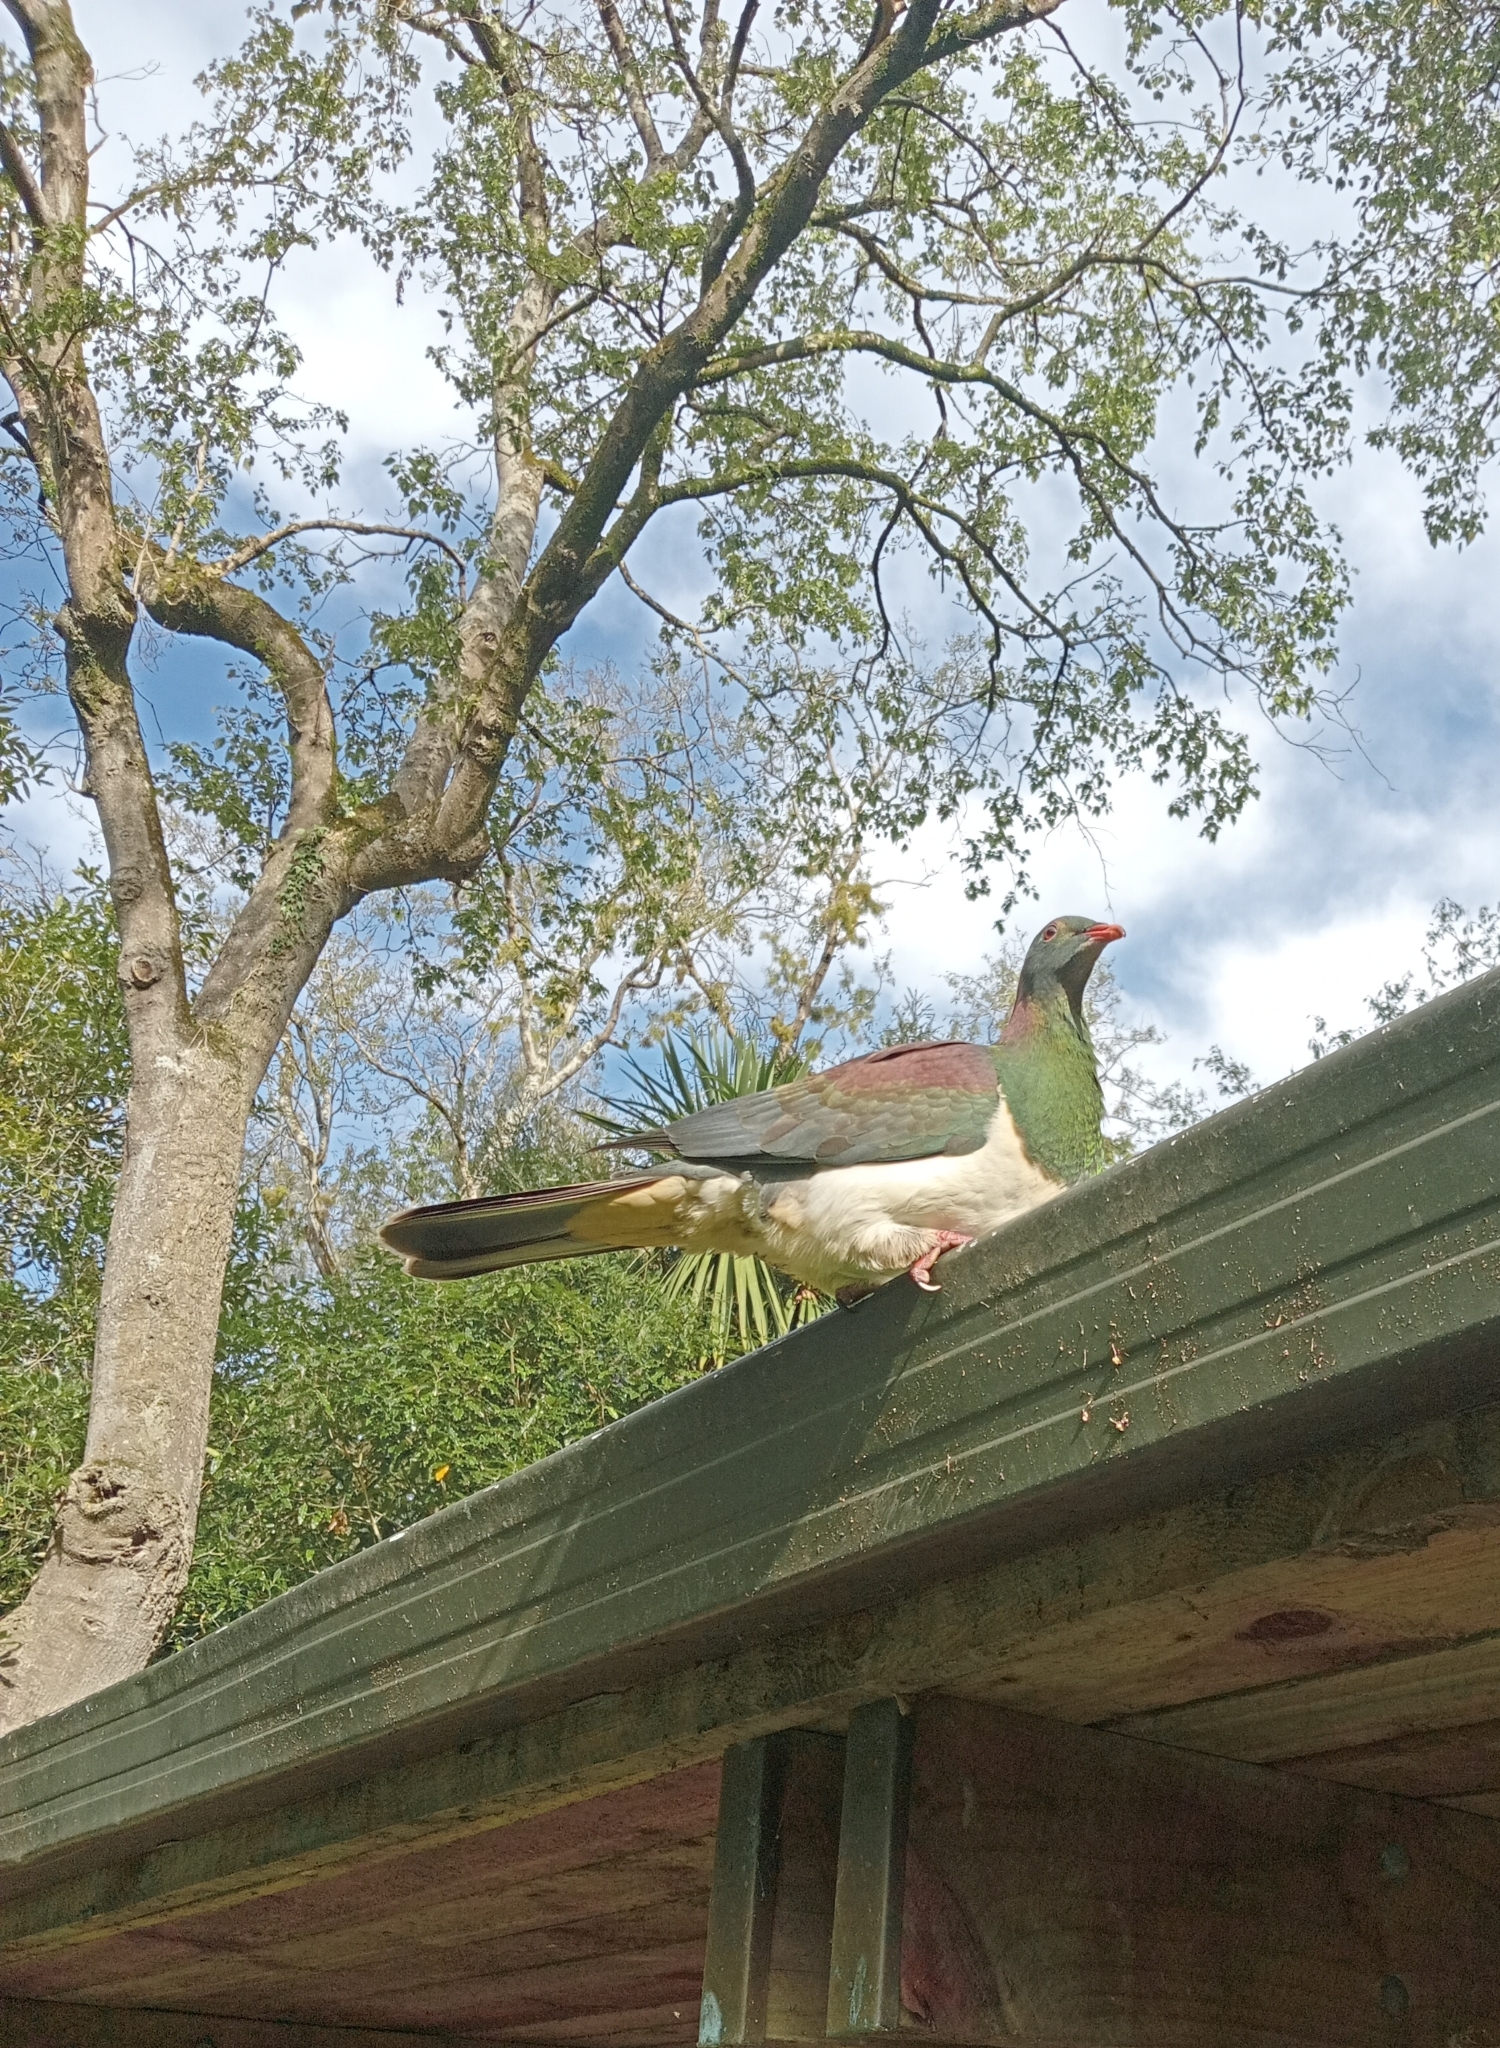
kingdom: Animalia
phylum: Chordata
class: Aves
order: Columbiformes
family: Columbidae
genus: Hemiphaga
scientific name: Hemiphaga novaeseelandiae
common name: New zealand pigeon
